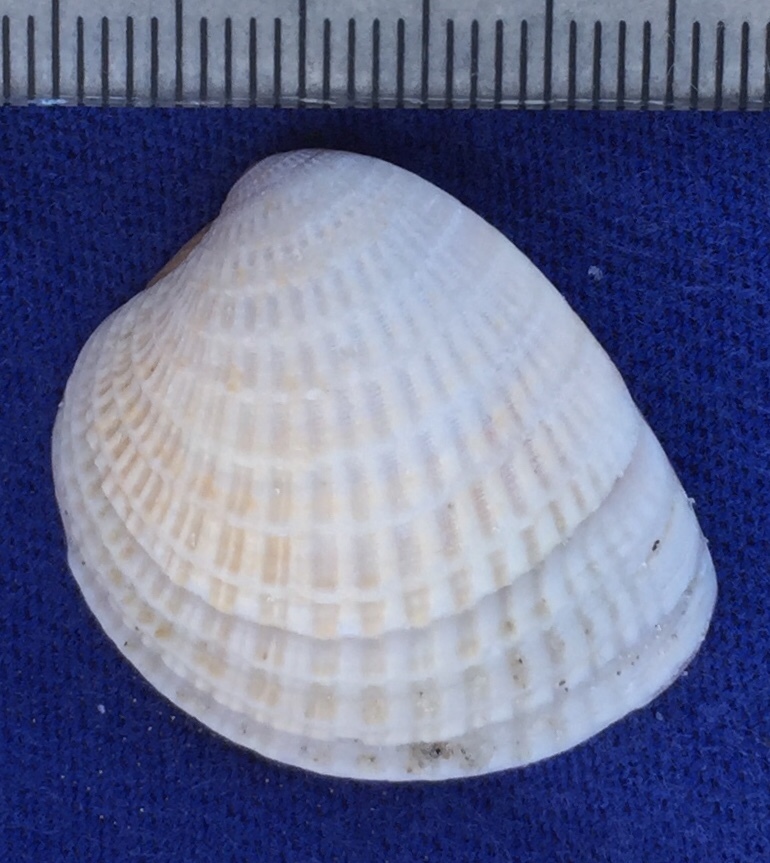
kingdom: Animalia
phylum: Mollusca
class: Bivalvia
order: Venerida
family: Veneridae
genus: Chione
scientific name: Chione elevata
